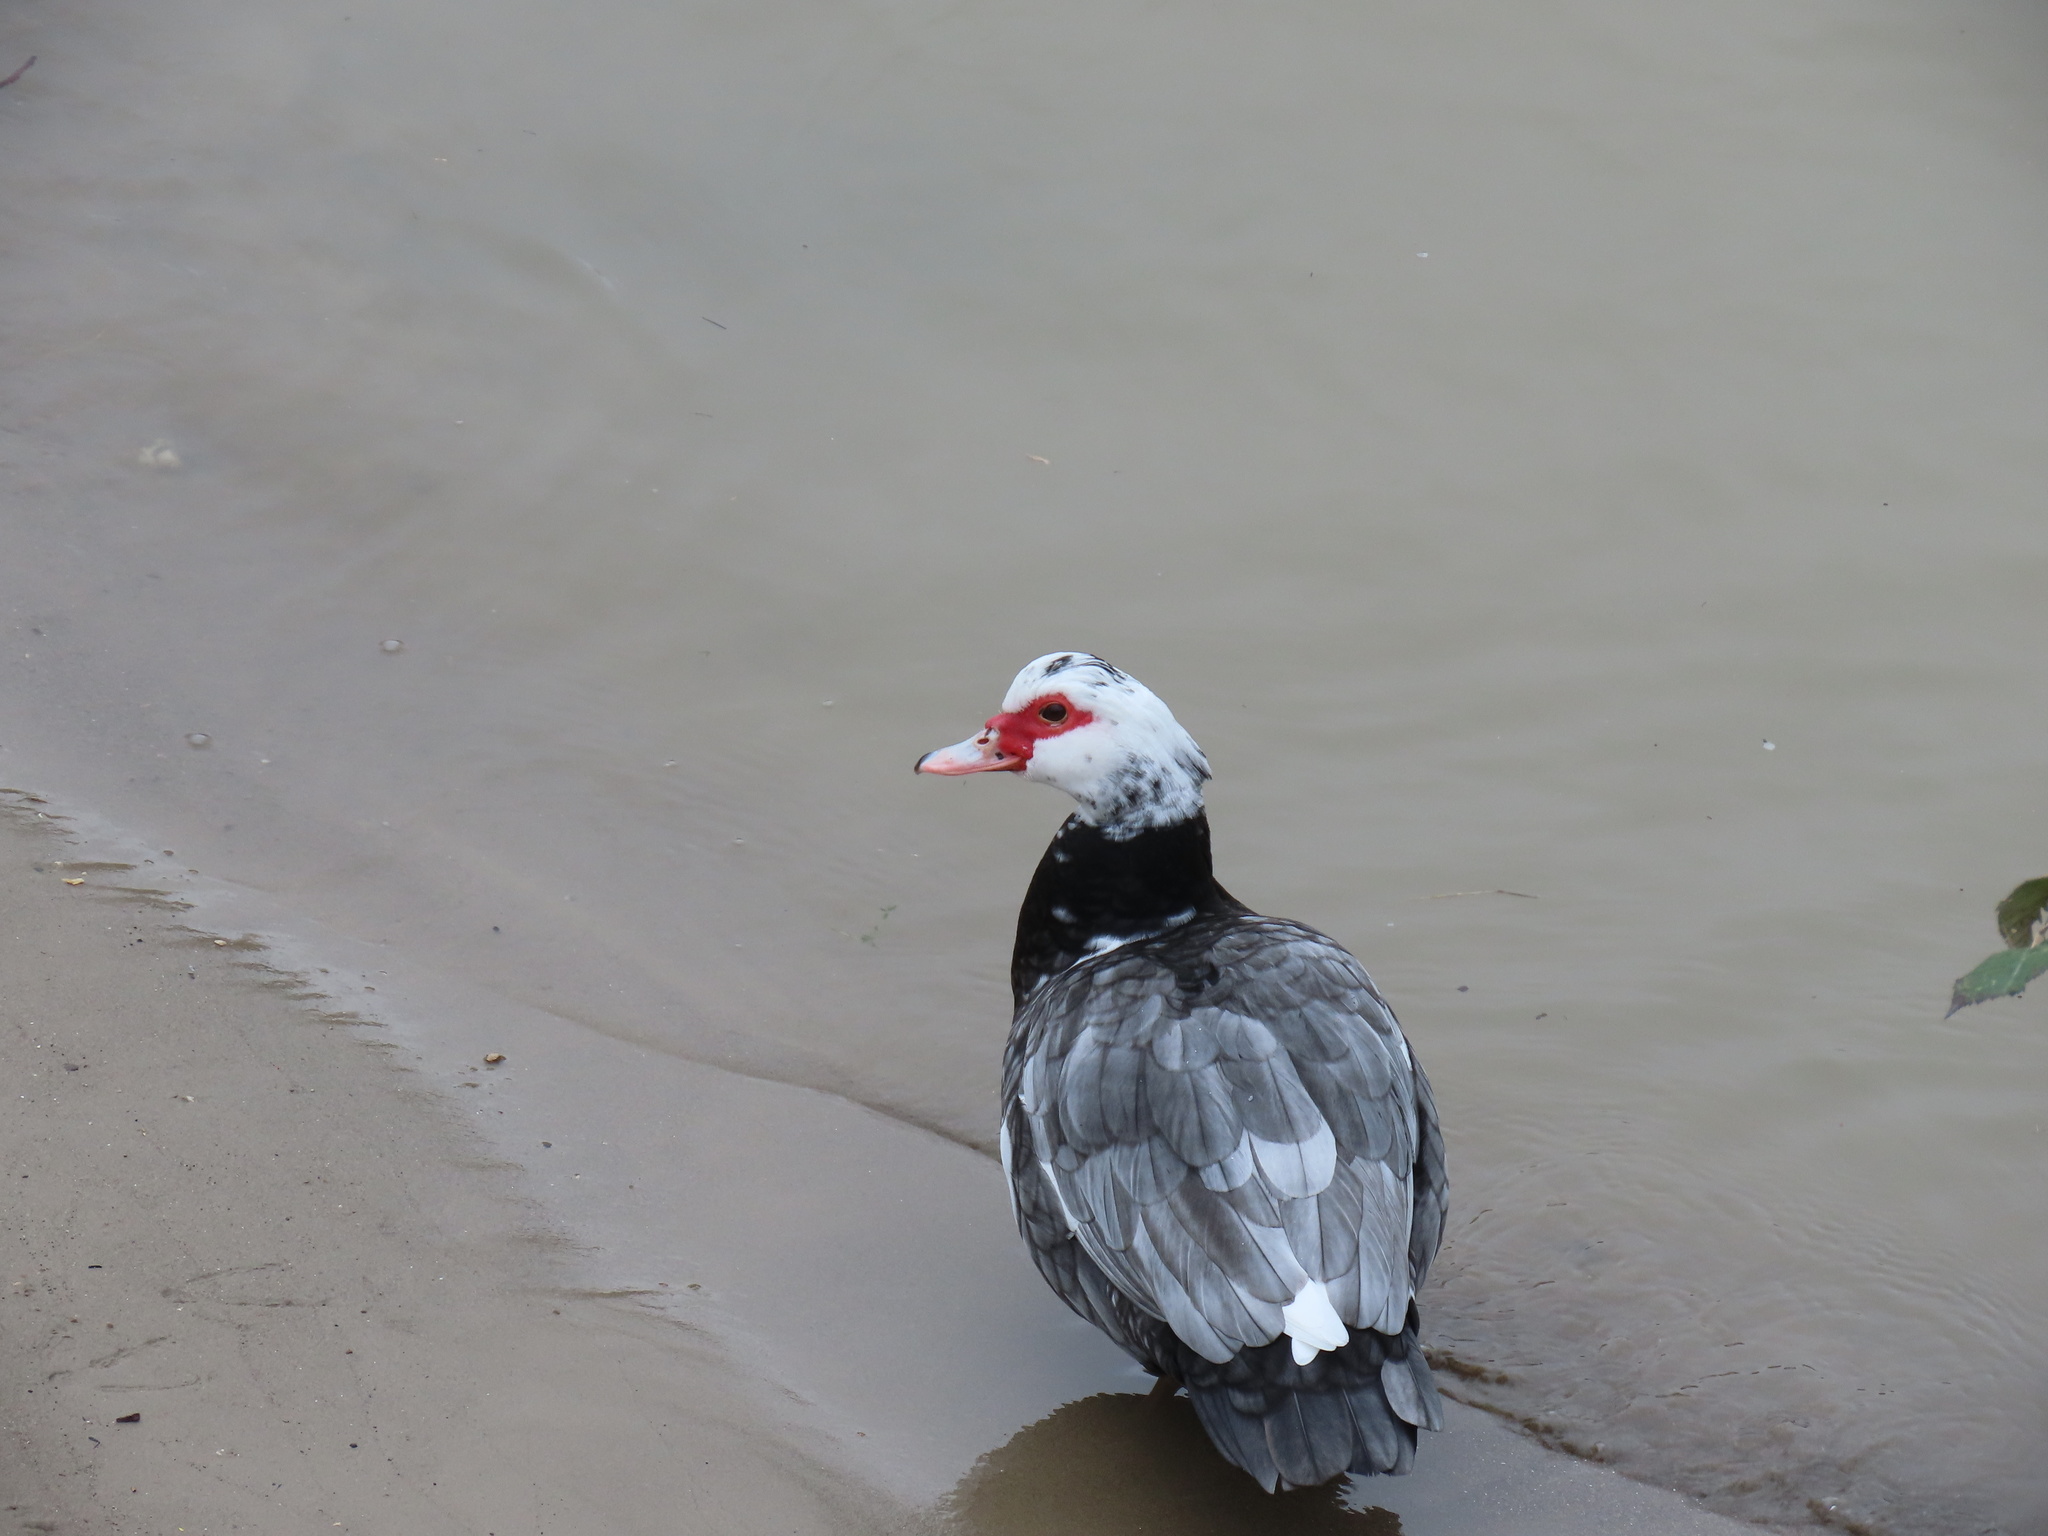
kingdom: Animalia
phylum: Chordata
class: Aves
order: Anseriformes
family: Anatidae
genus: Cairina
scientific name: Cairina moschata
